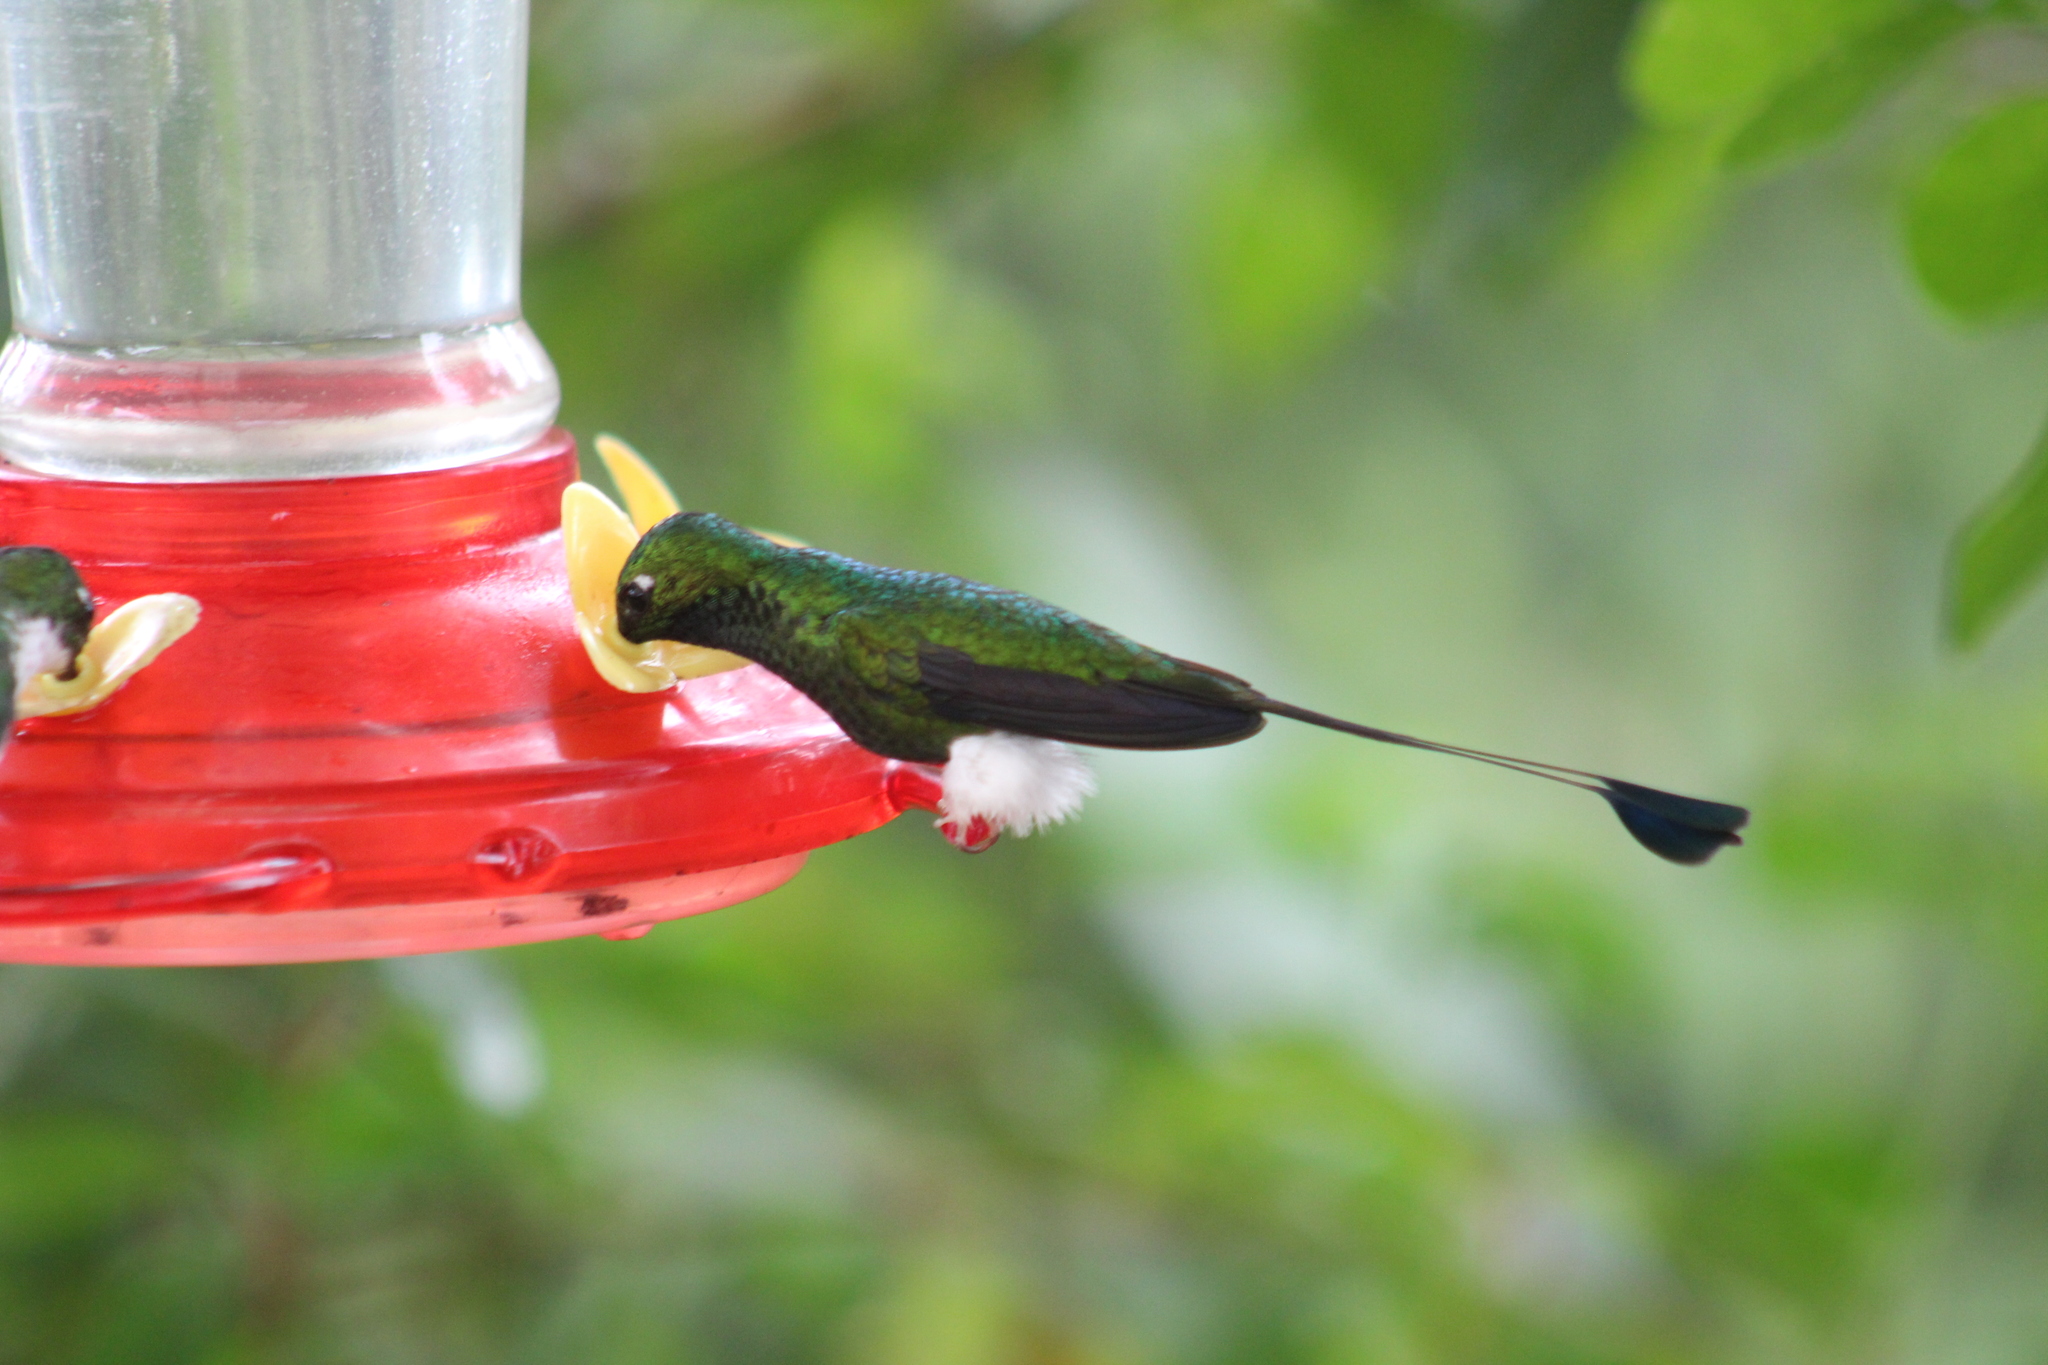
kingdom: Animalia
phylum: Chordata
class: Aves
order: Apodiformes
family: Trochilidae
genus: Ocreatus
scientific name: Ocreatus underwoodii
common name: Booted racket-tail
